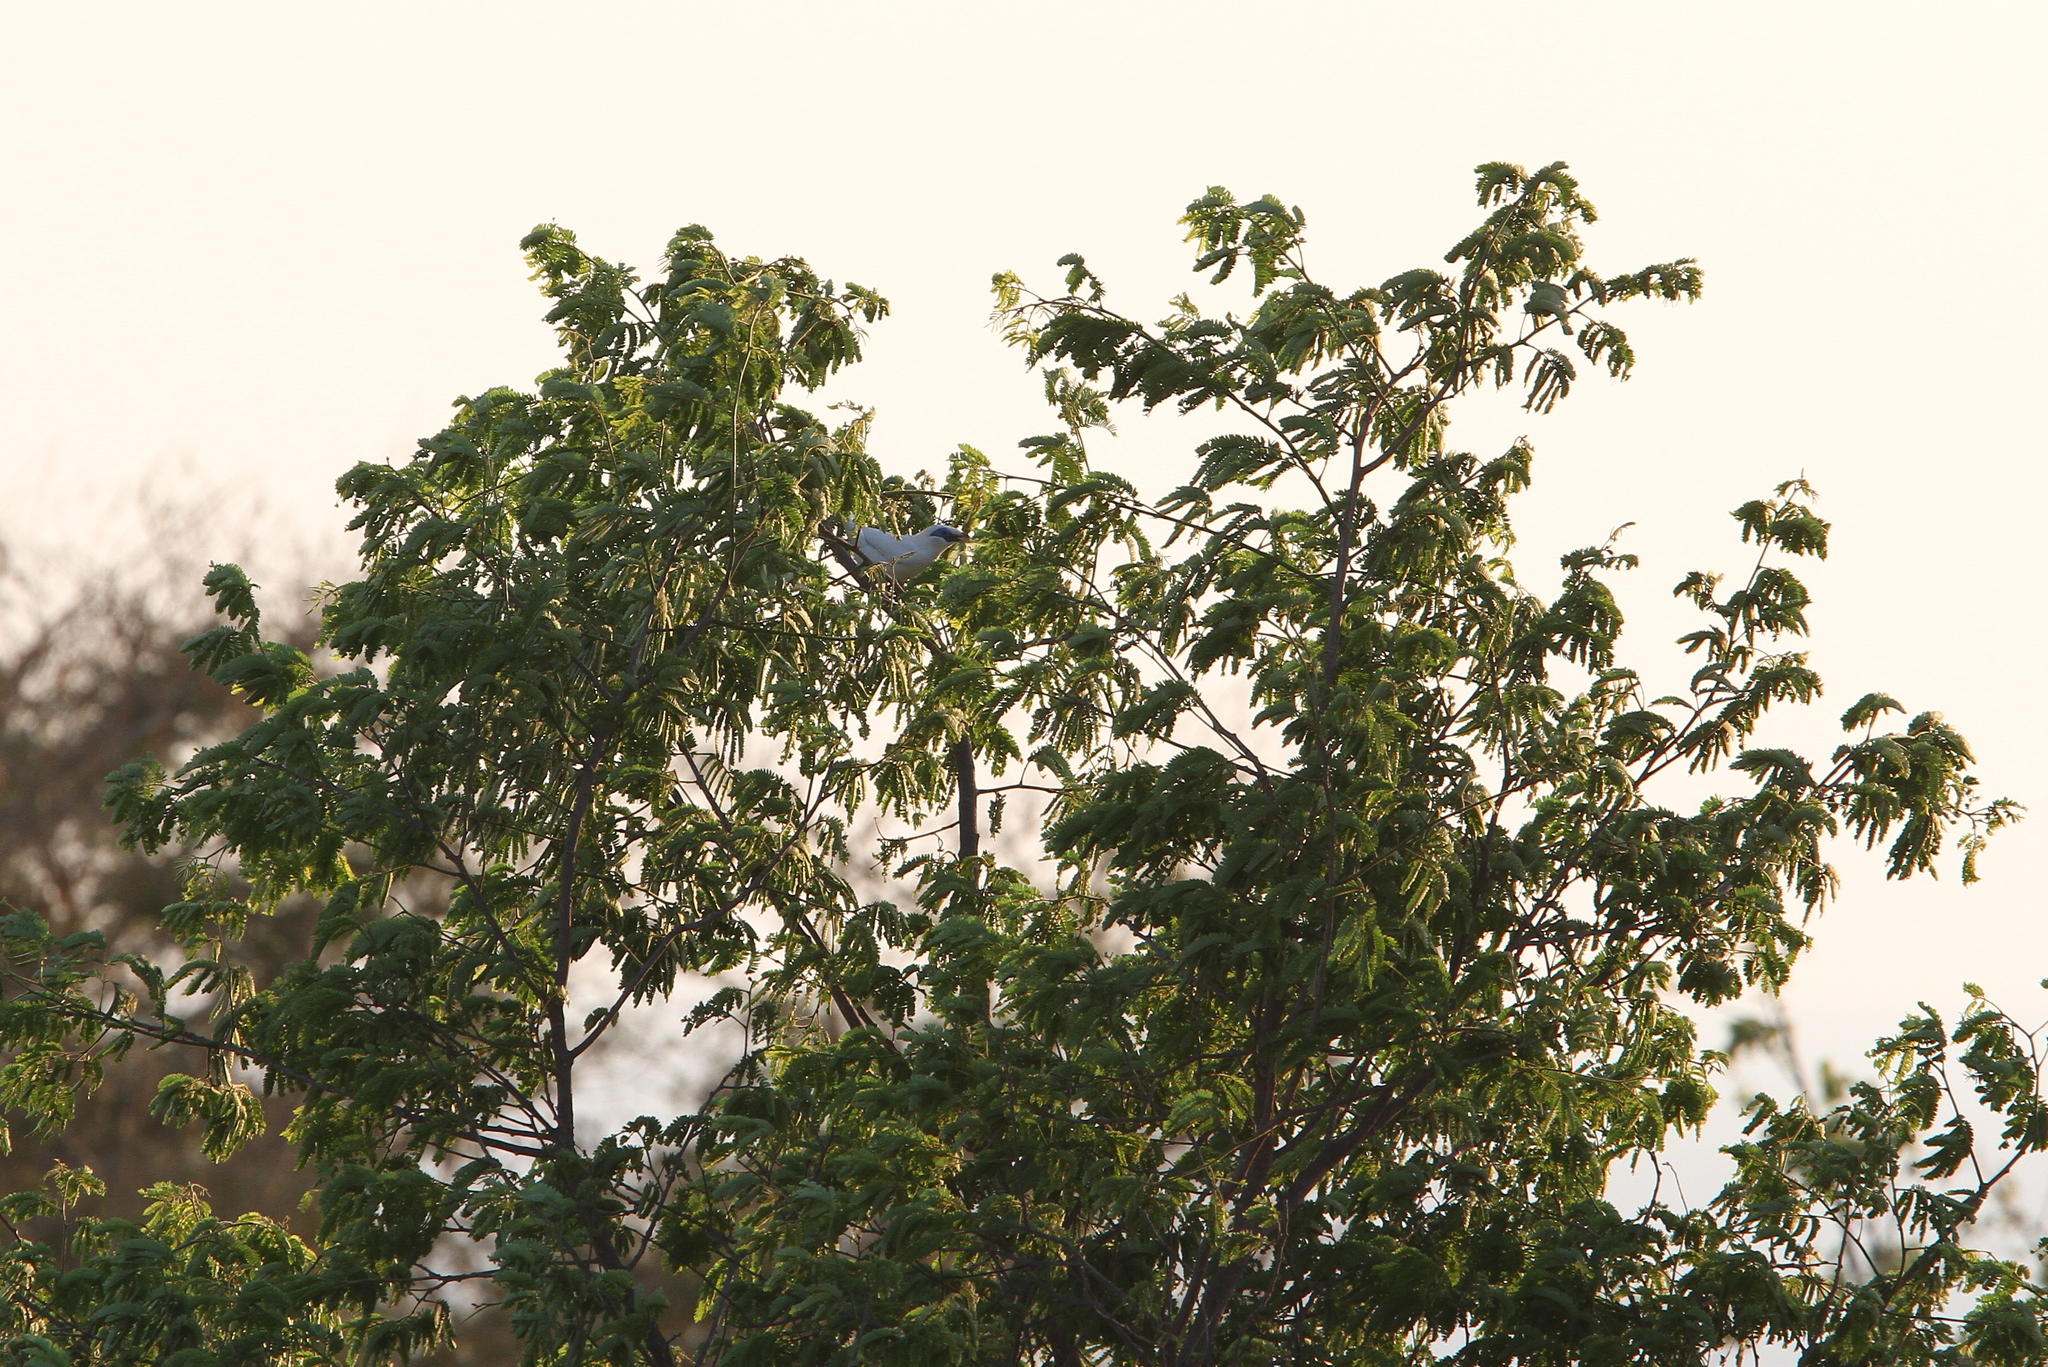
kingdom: Animalia
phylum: Chordata
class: Aves
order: Passeriformes
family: Sturnidae
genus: Leucopsar
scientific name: Leucopsar rothschildi
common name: Bali myna
